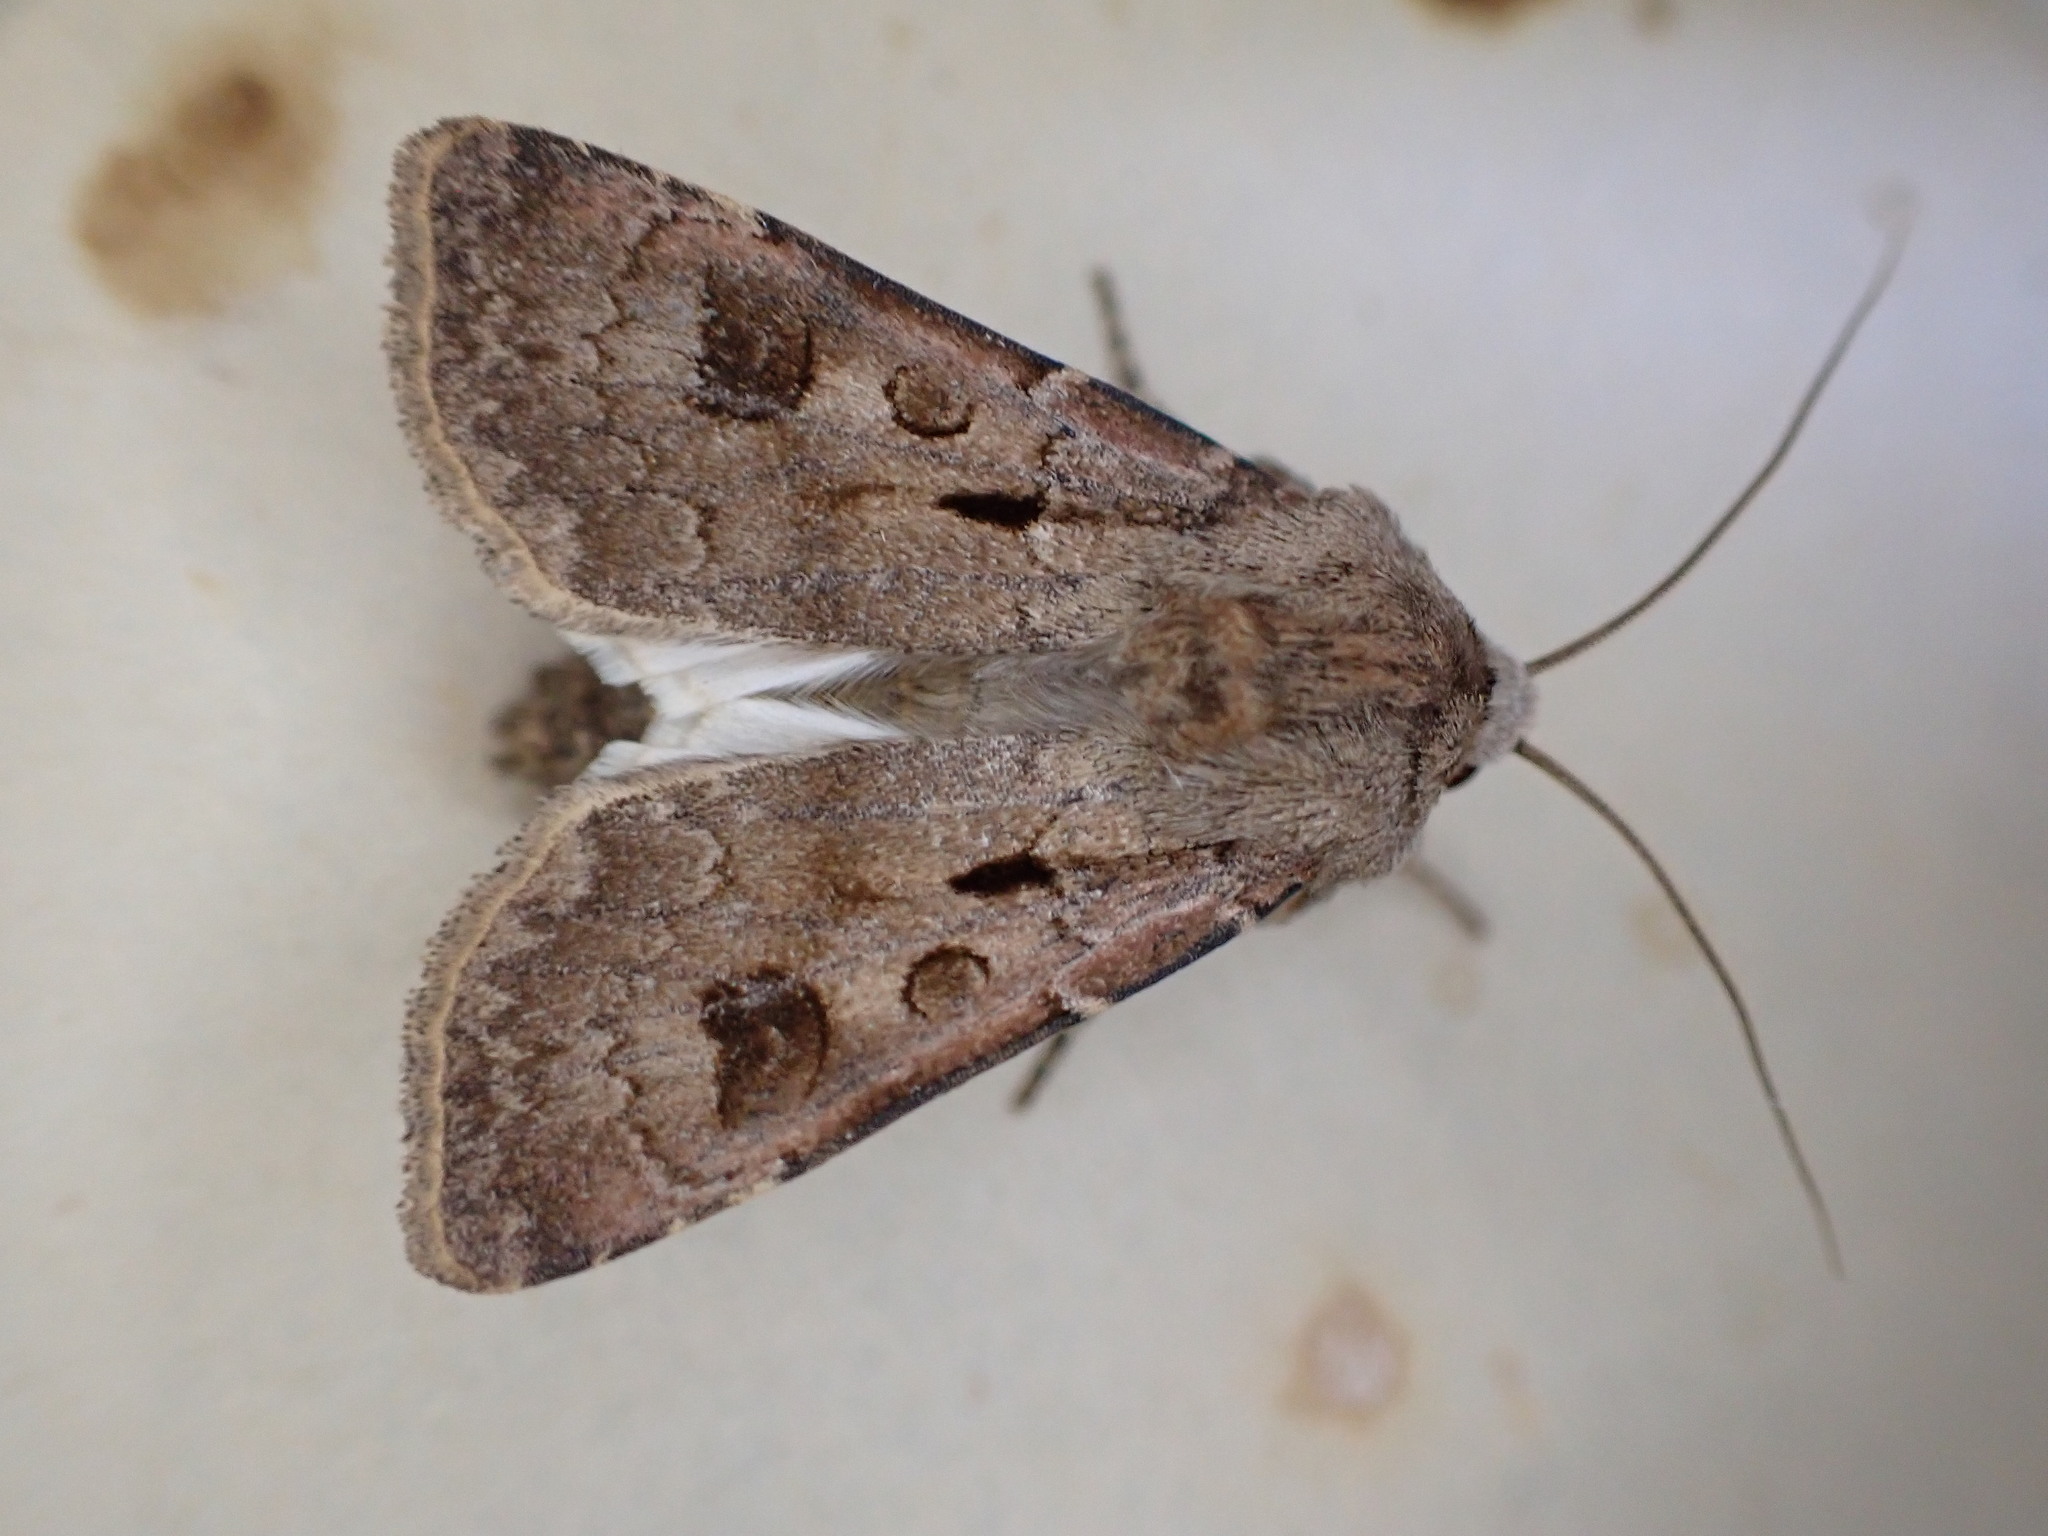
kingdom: Animalia
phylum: Arthropoda
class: Insecta
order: Lepidoptera
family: Noctuidae
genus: Agrotis
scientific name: Agrotis exclamationis
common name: Heart and dart
